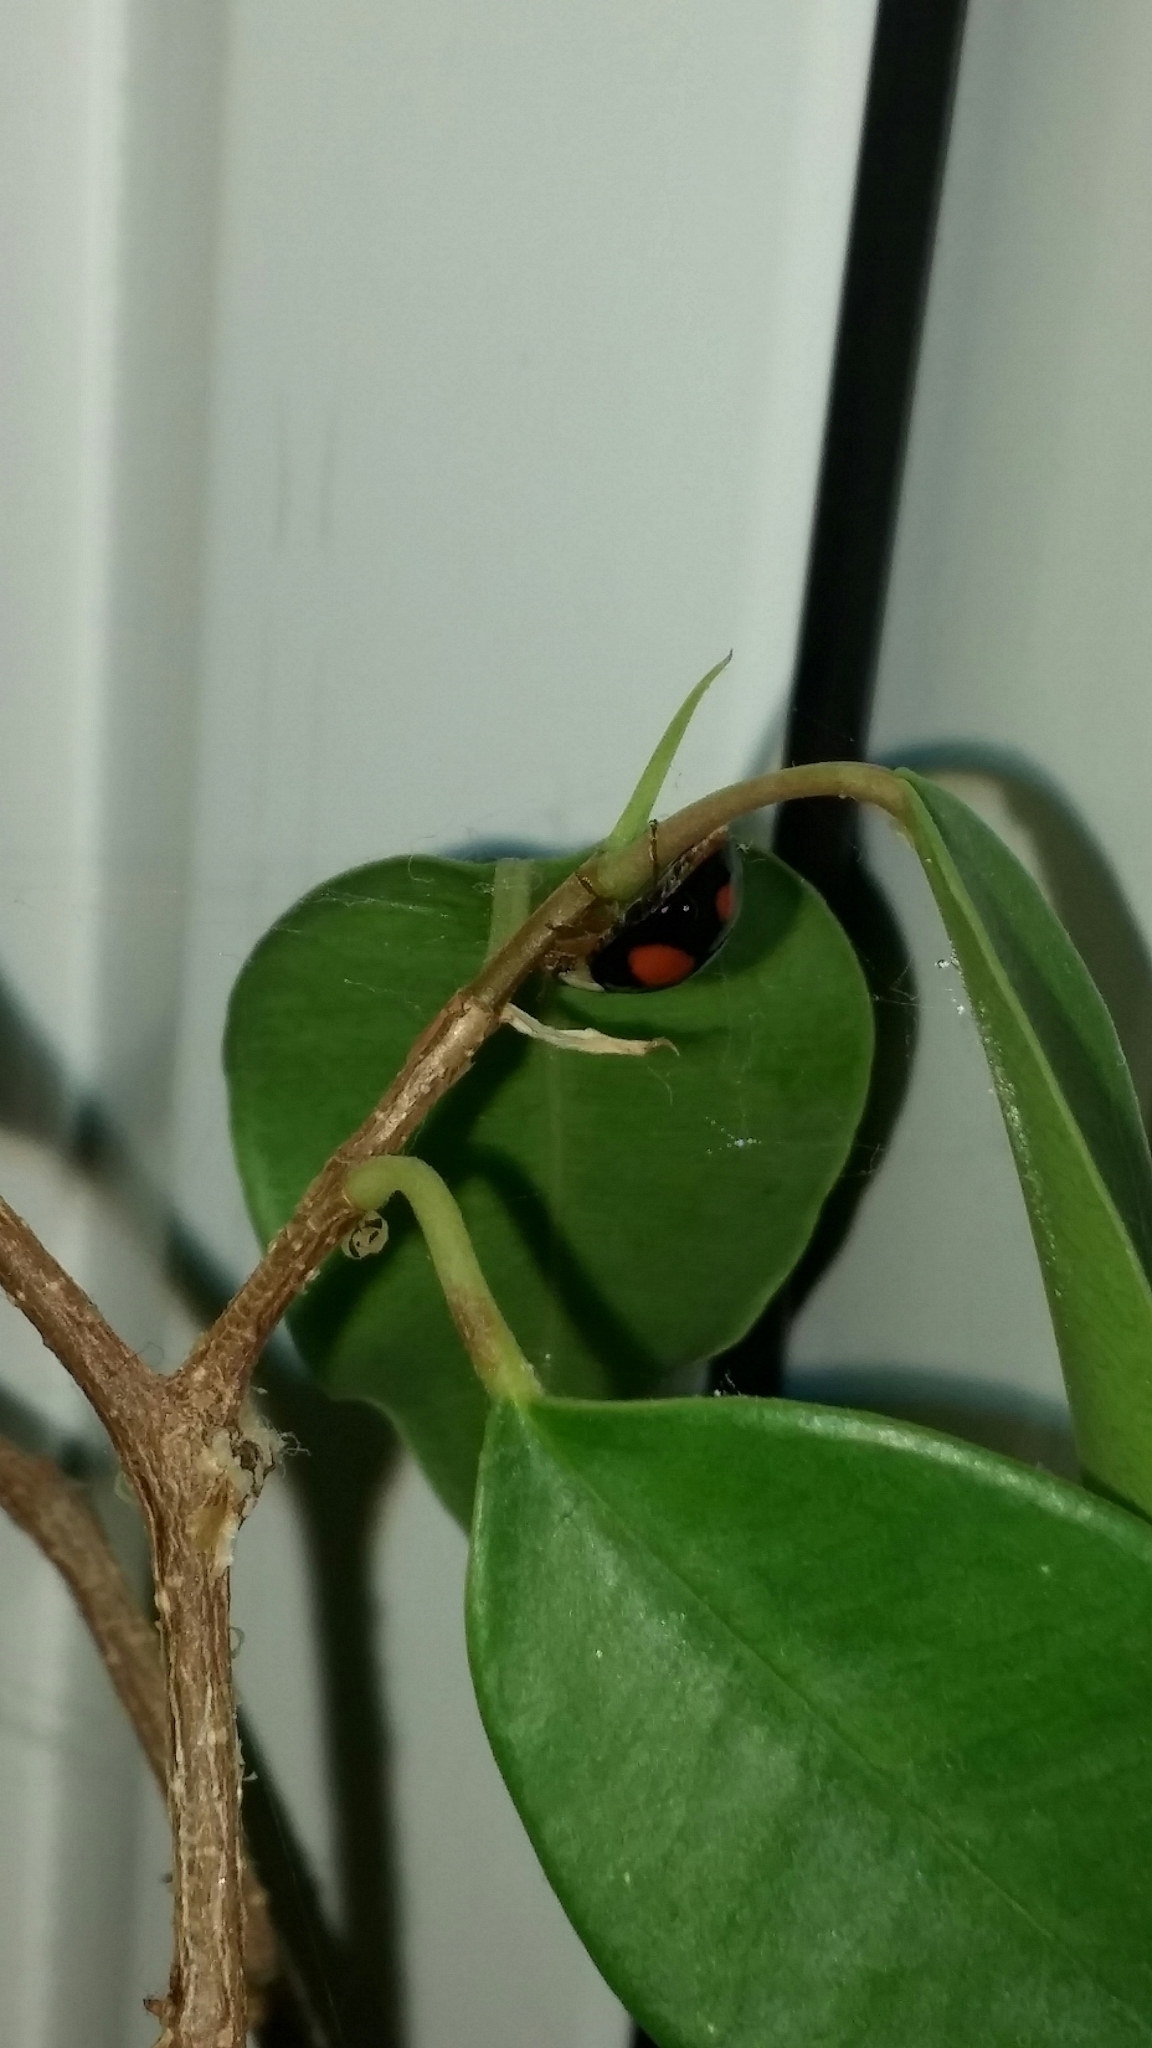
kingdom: Animalia
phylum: Arthropoda
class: Insecta
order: Coleoptera
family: Coccinellidae
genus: Harmonia
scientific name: Harmonia axyridis
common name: Harlequin ladybird
